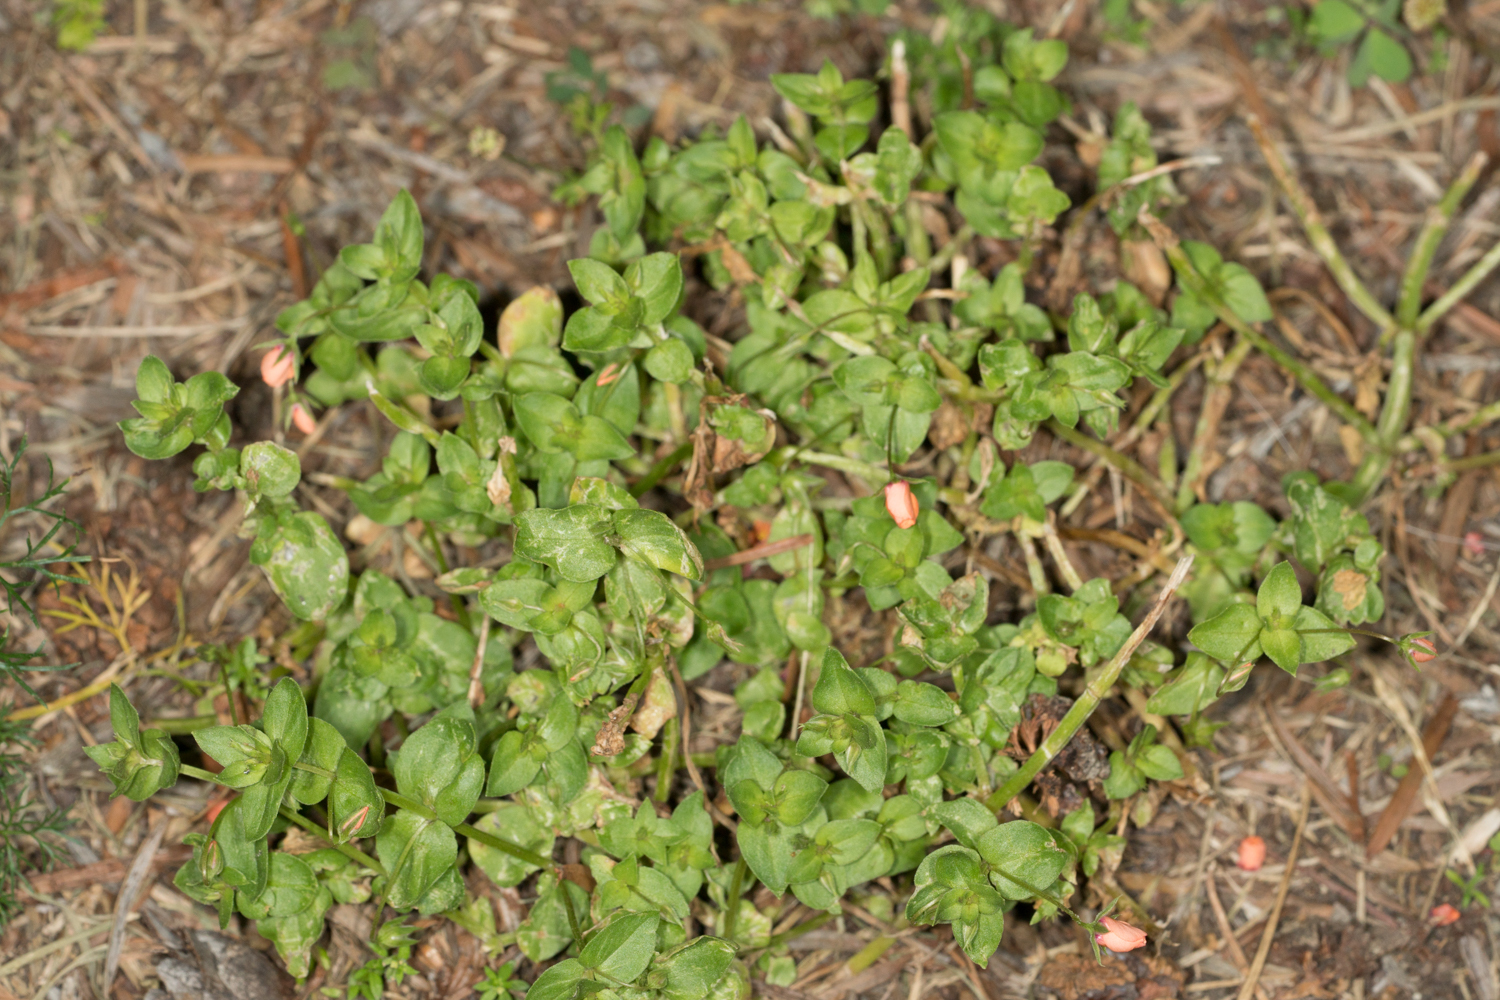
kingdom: Plantae
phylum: Tracheophyta
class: Magnoliopsida
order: Ericales
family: Primulaceae
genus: Lysimachia
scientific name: Lysimachia arvensis
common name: Scarlet pimpernel
